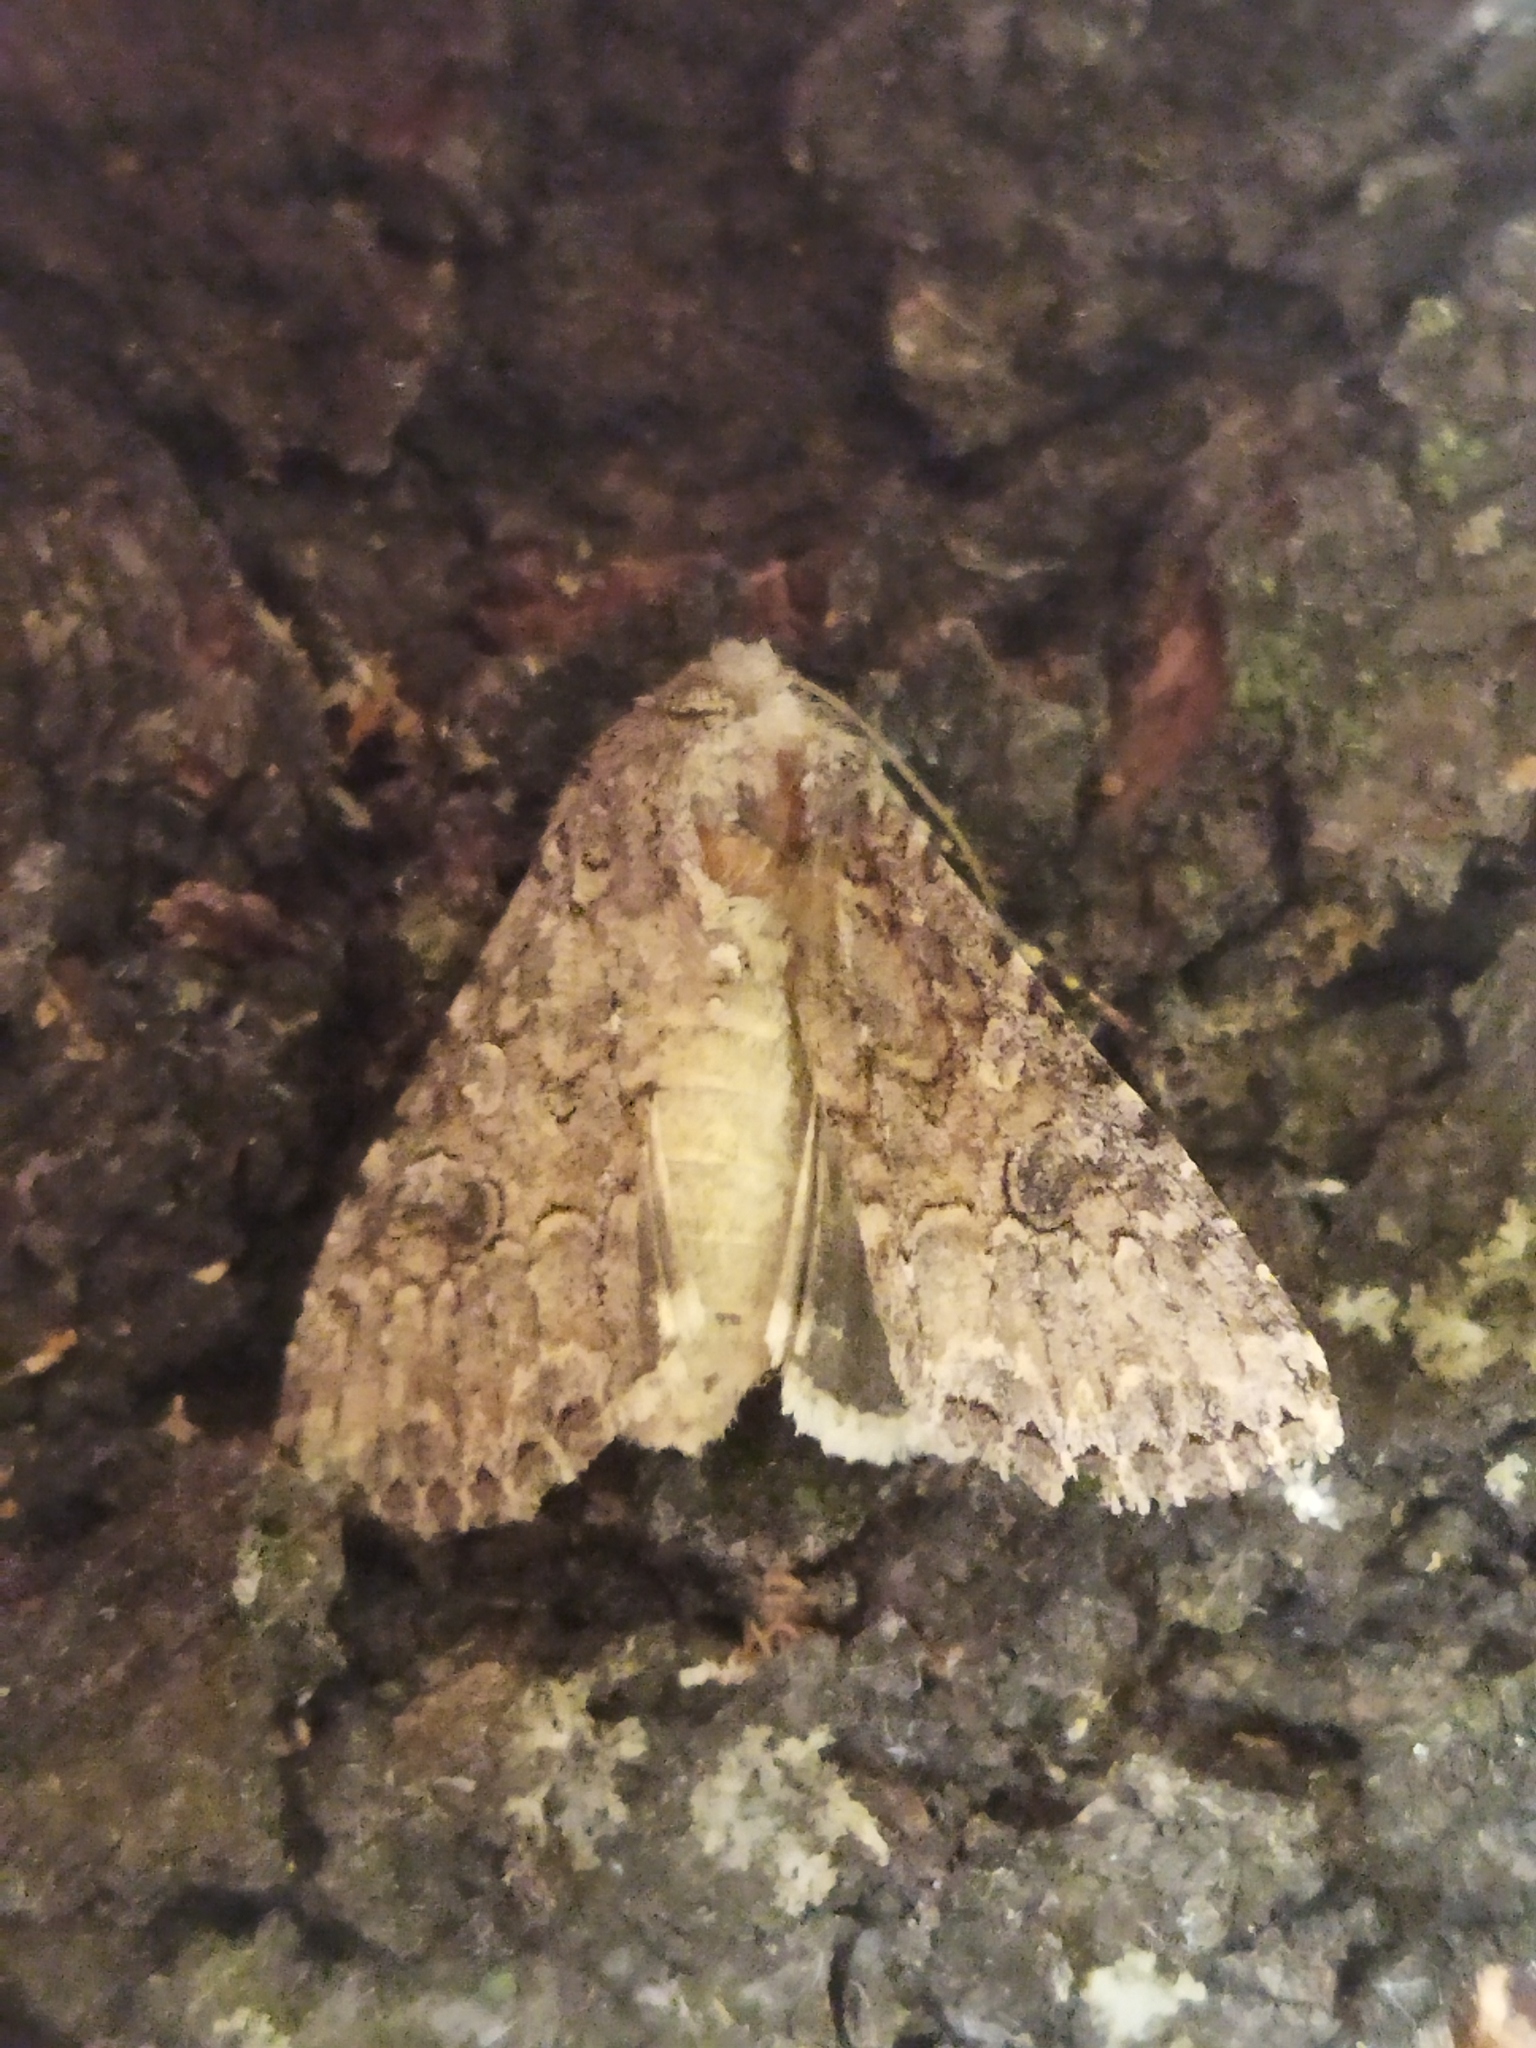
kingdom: Animalia
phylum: Arthropoda
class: Insecta
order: Lepidoptera
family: Noctuidae
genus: Anarta
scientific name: Anarta trifolii
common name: Clover cutworm moth
